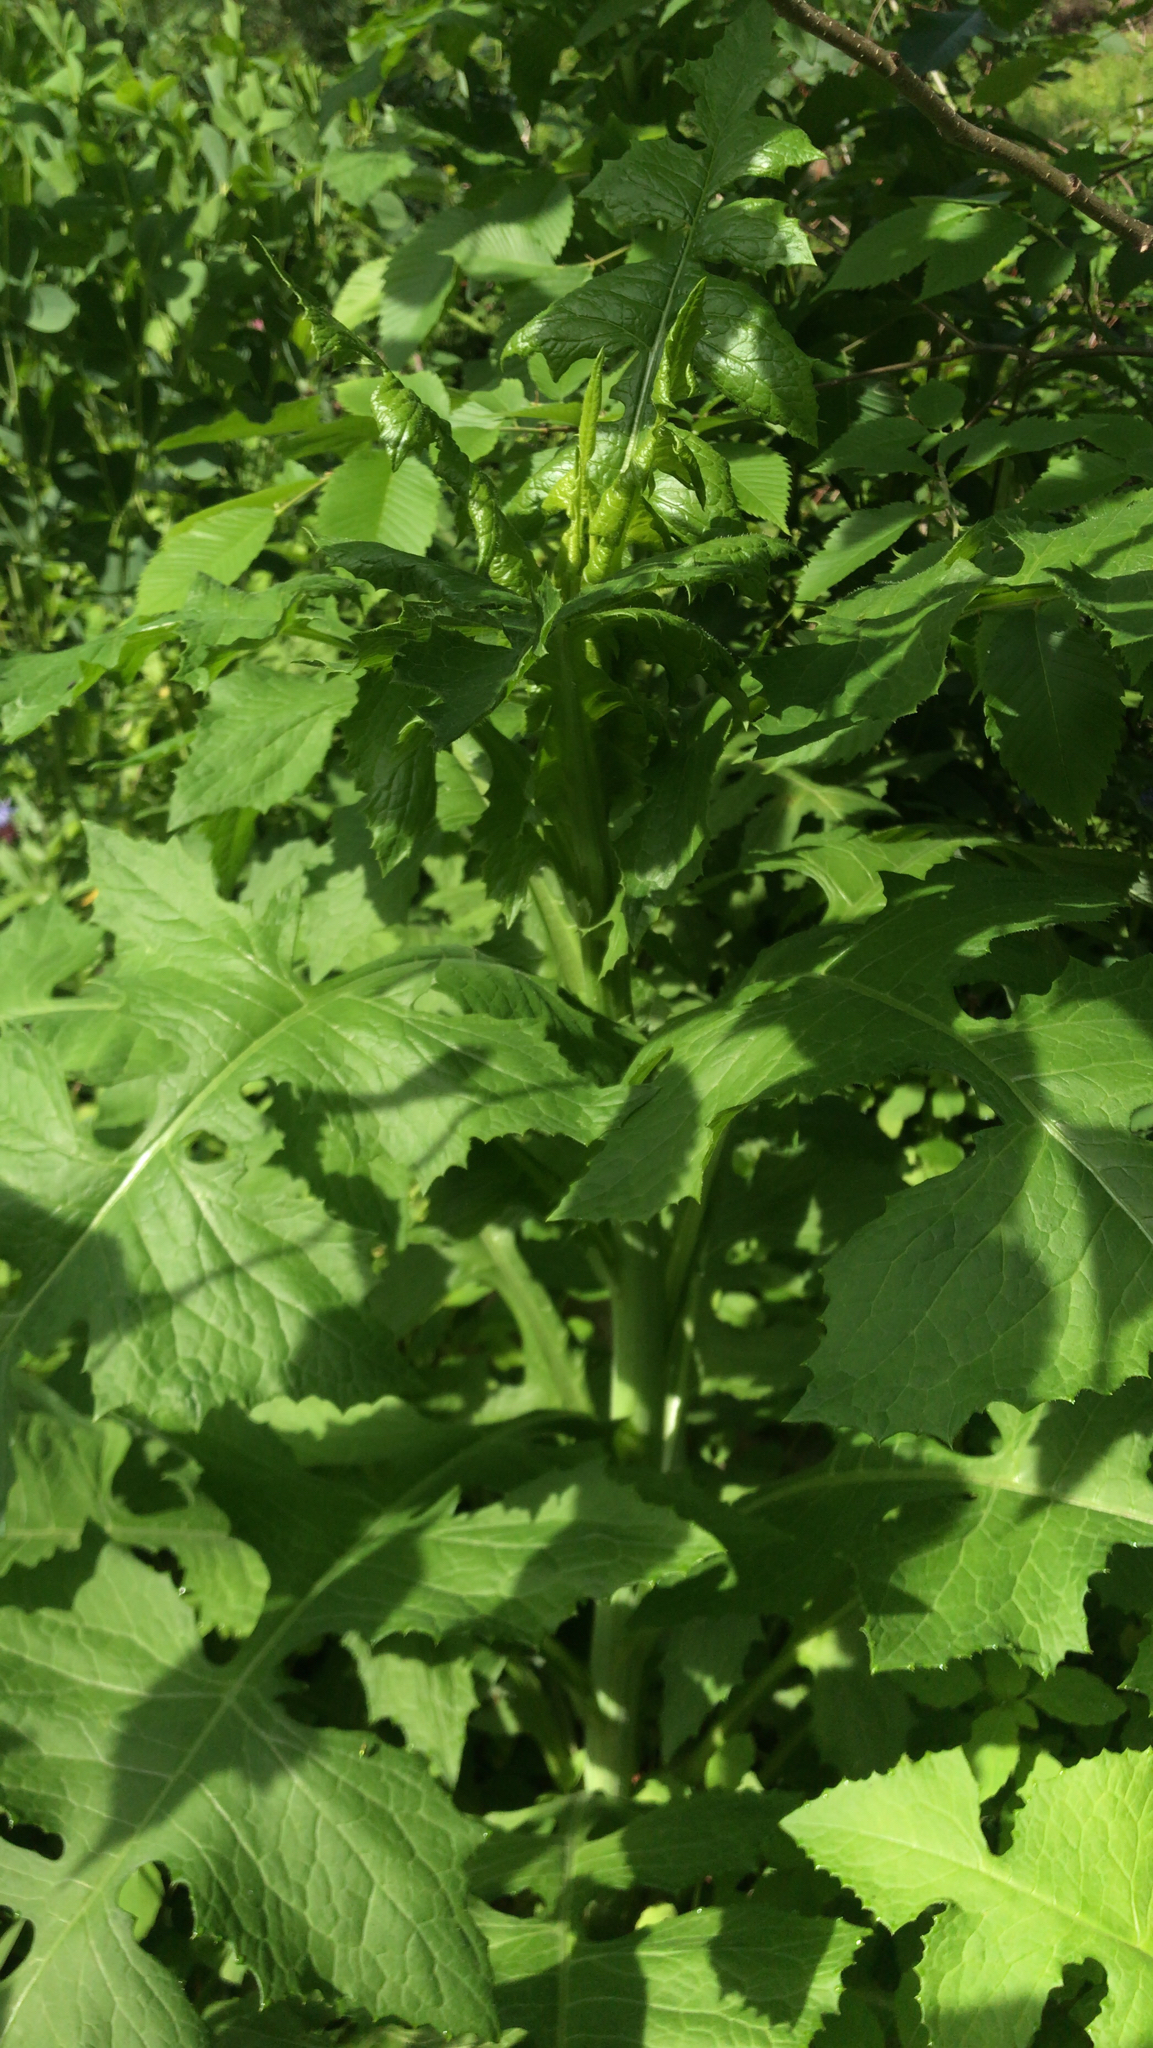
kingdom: Plantae
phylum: Tracheophyta
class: Magnoliopsida
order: Asterales
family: Asteraceae
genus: Lactuca
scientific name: Lactuca biennis
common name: Blue wood lettuce
